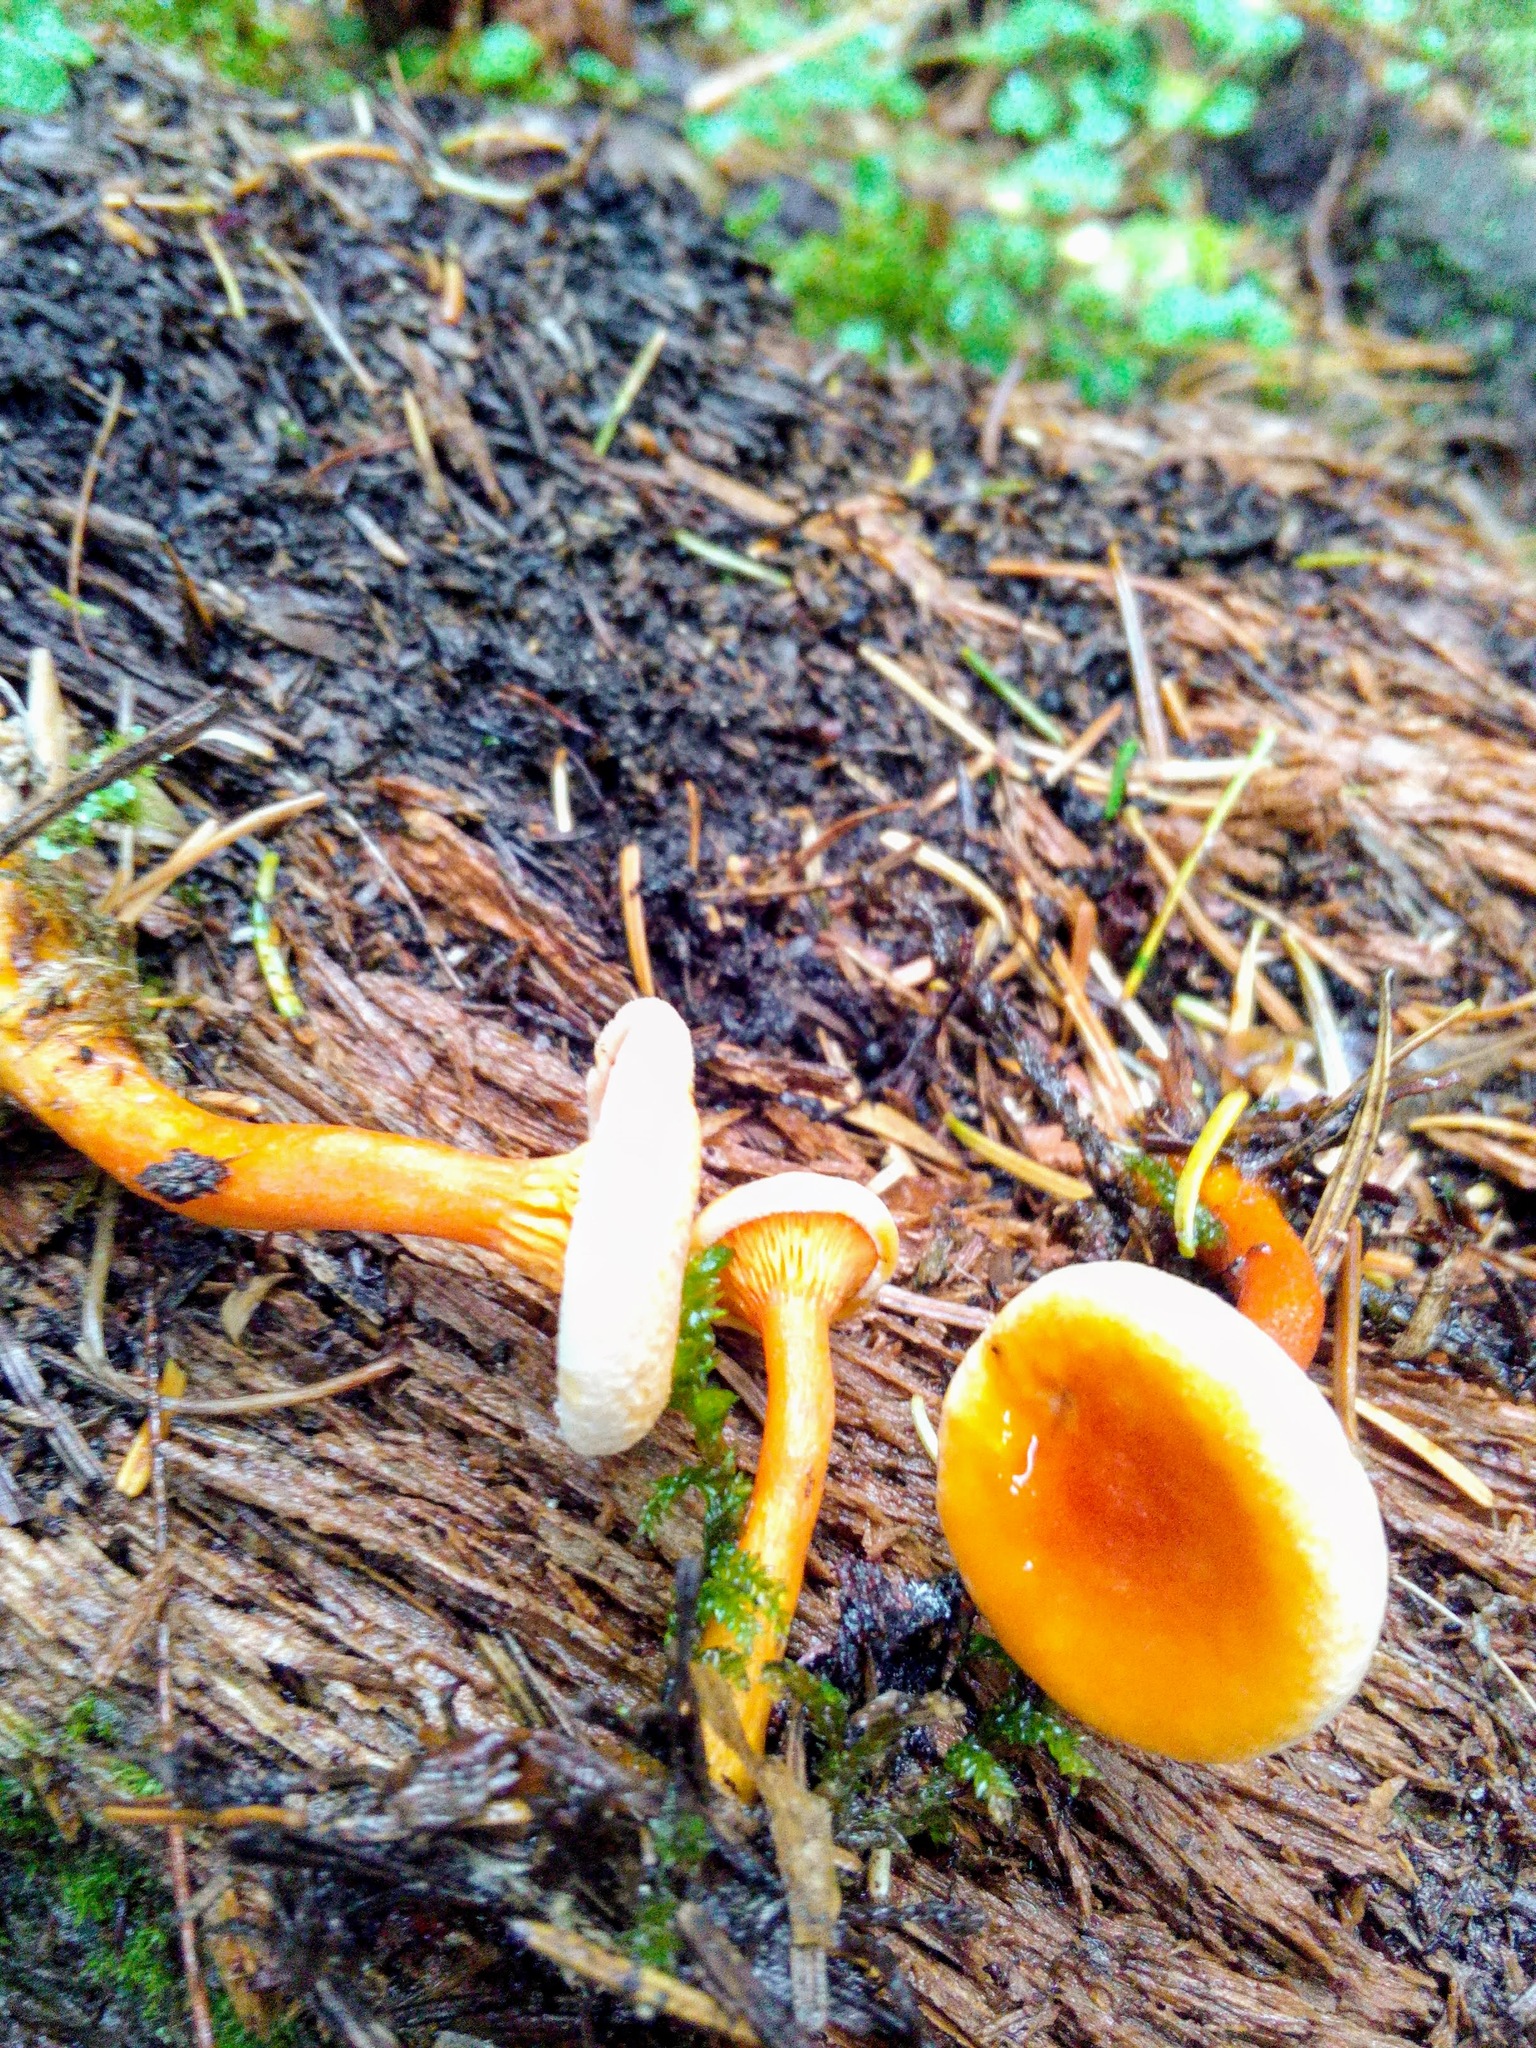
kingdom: Fungi
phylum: Basidiomycota
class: Agaricomycetes
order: Boletales
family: Hygrophoropsidaceae
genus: Hygrophoropsis
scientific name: Hygrophoropsis aurantiaca
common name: False chanterelle
